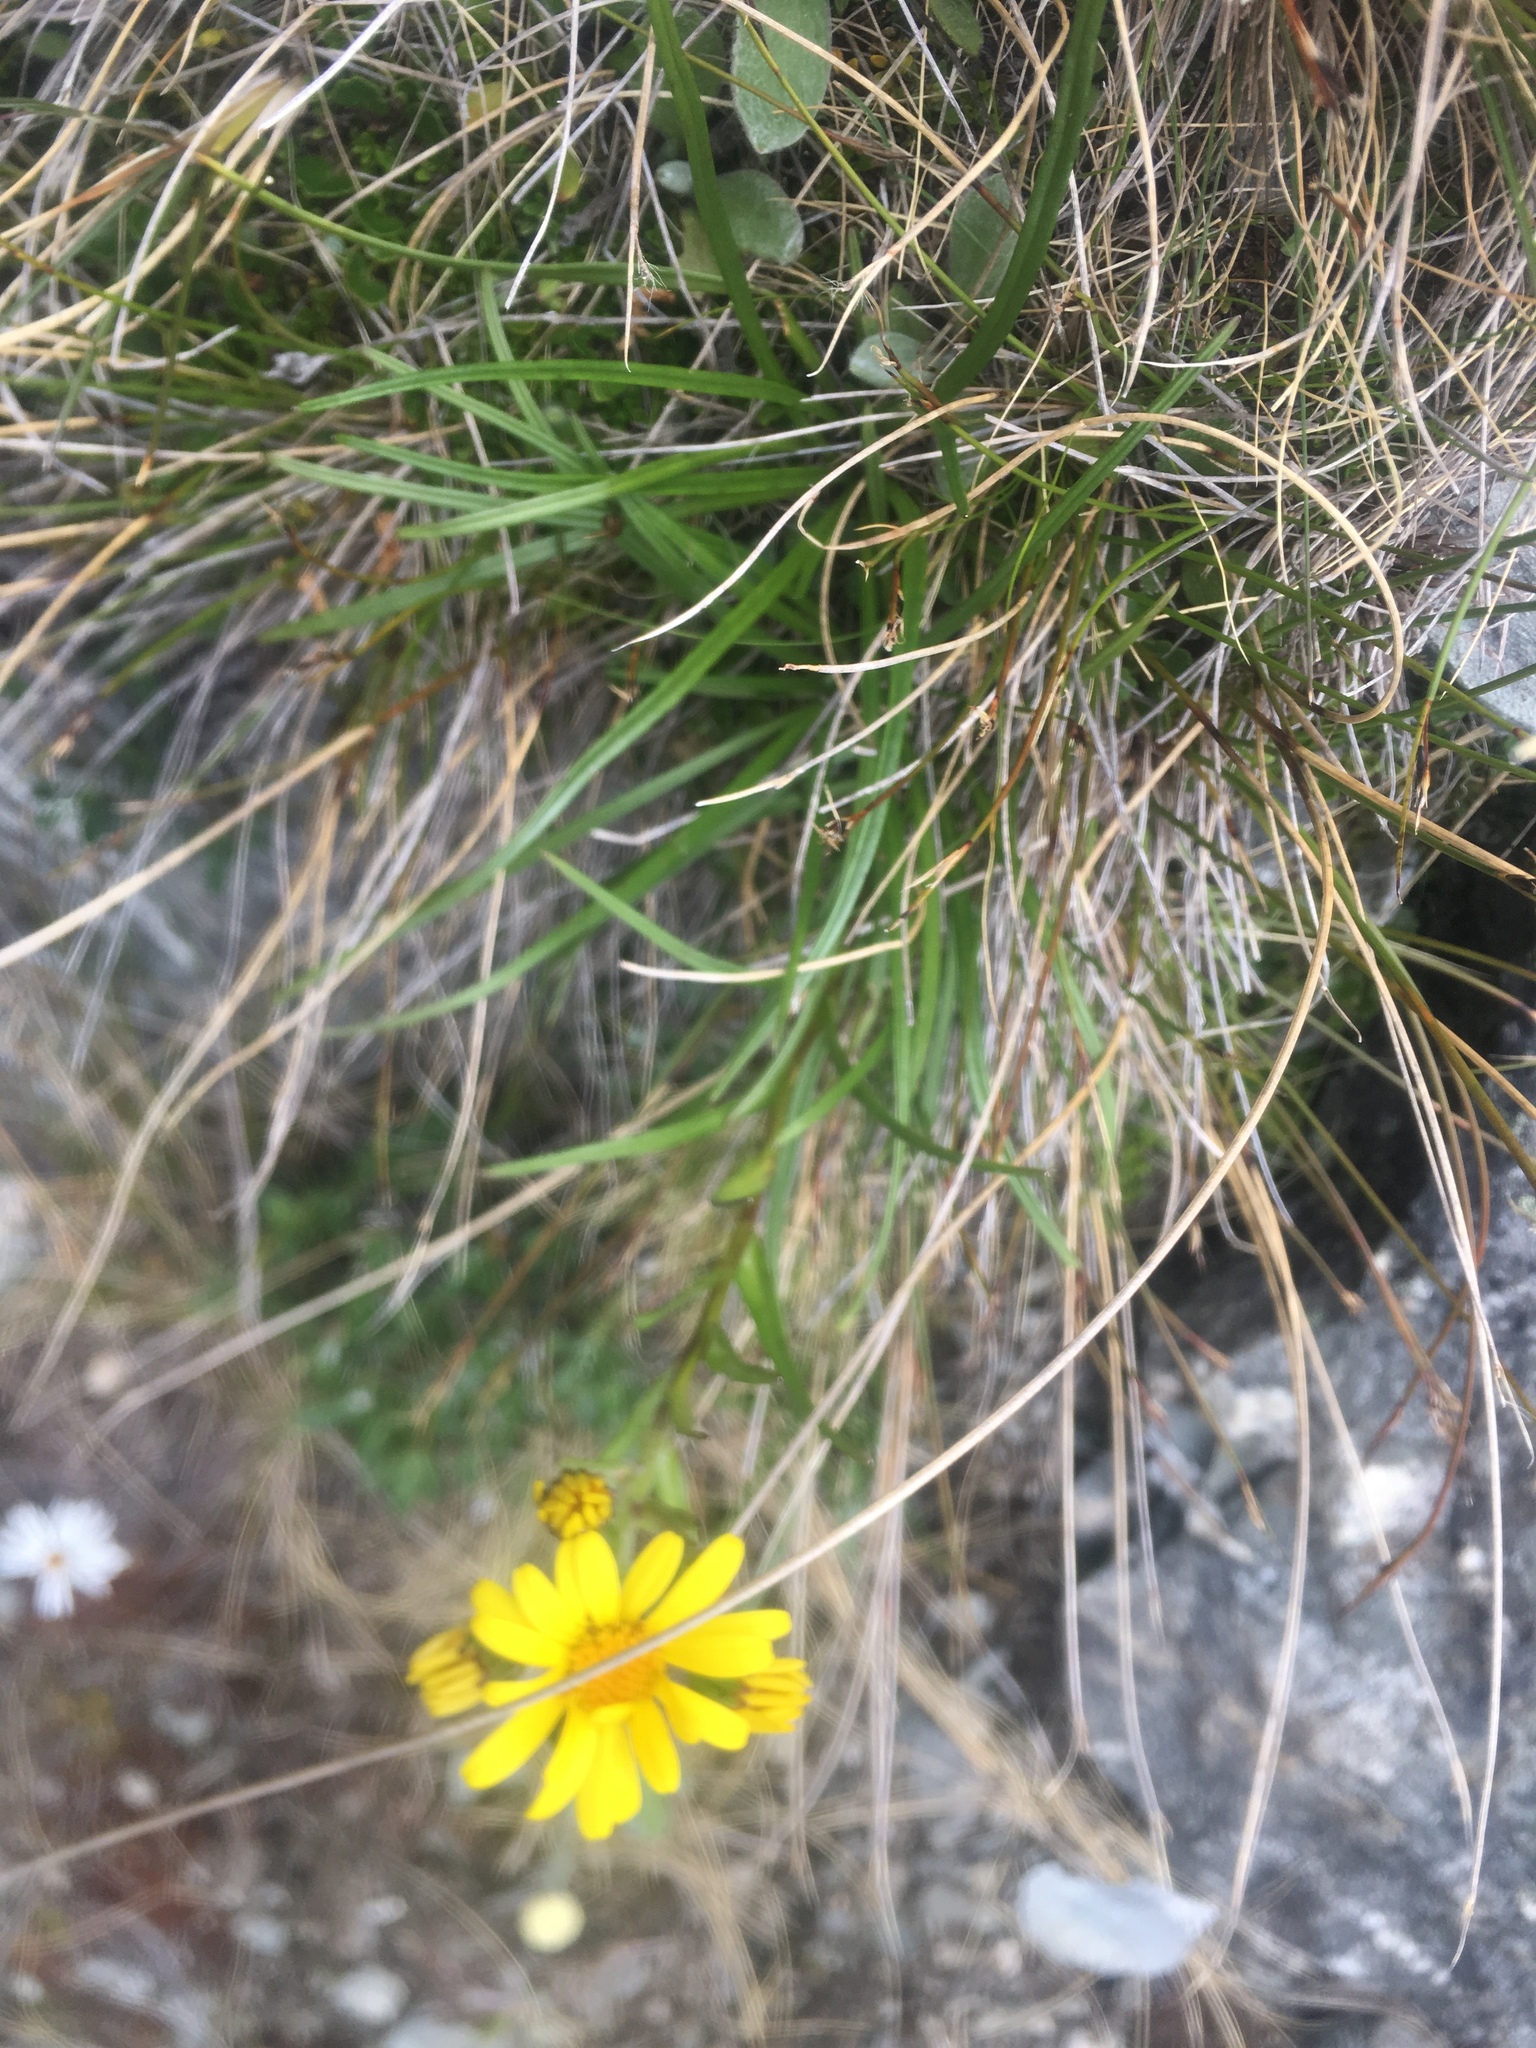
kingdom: Plantae
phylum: Tracheophyta
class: Magnoliopsida
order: Asterales
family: Asteraceae
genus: Brachyglottis
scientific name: Brachyglottis bellidioides
